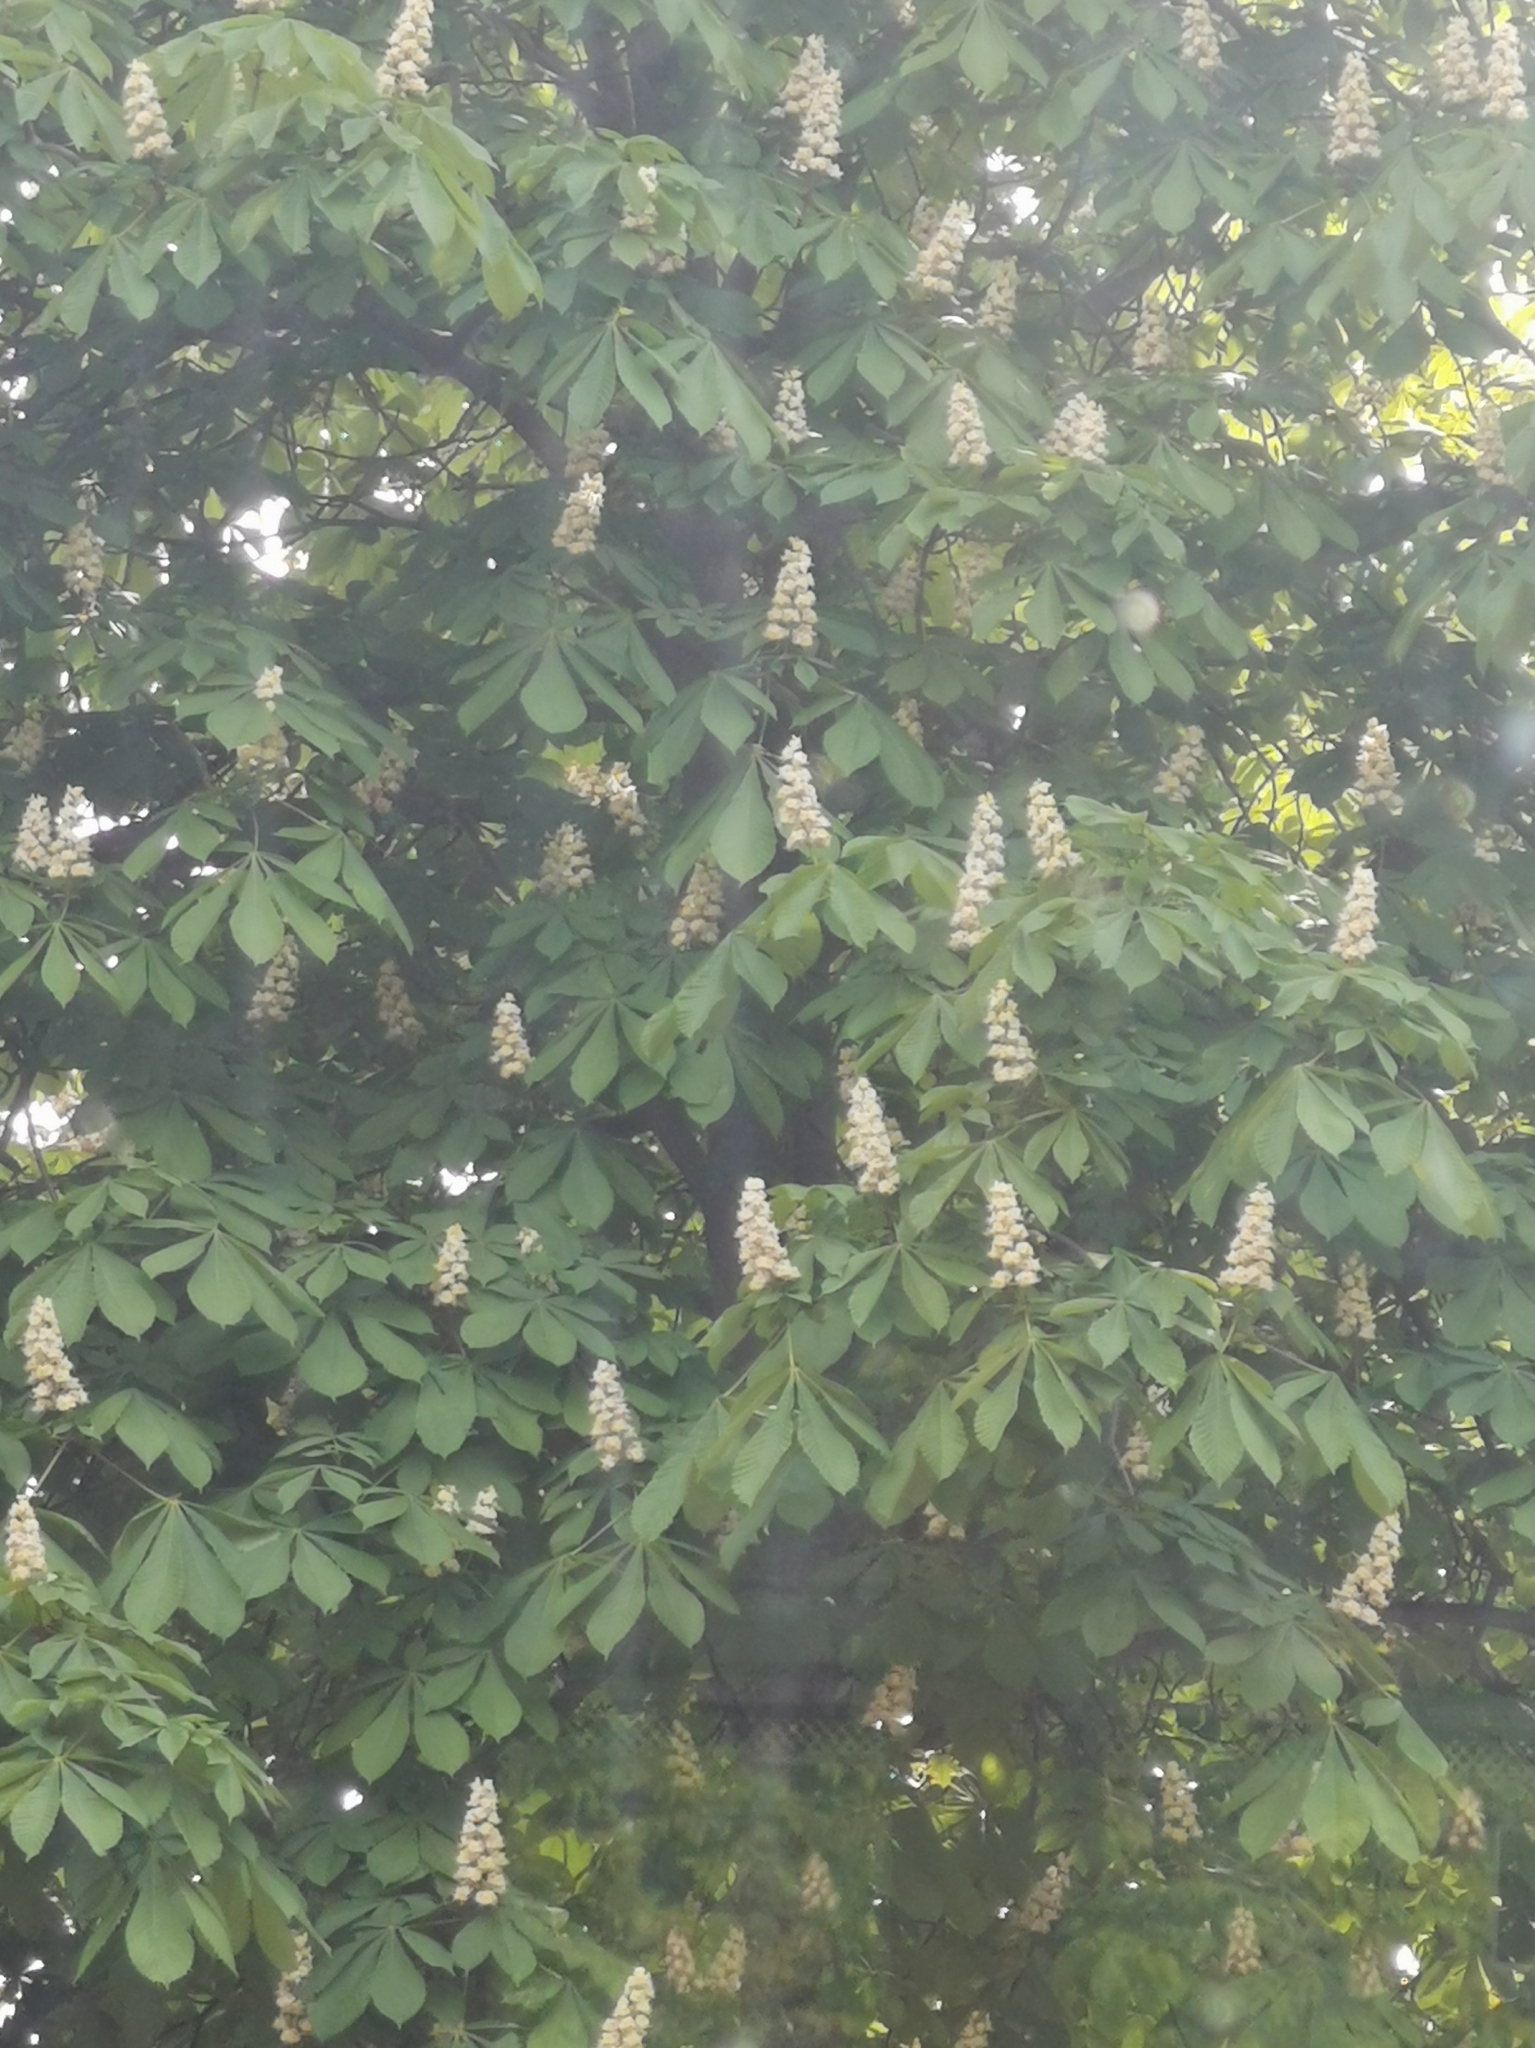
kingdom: Plantae
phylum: Tracheophyta
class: Magnoliopsida
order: Sapindales
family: Sapindaceae
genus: Aesculus
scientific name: Aesculus hippocastanum
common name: Horse-chestnut
